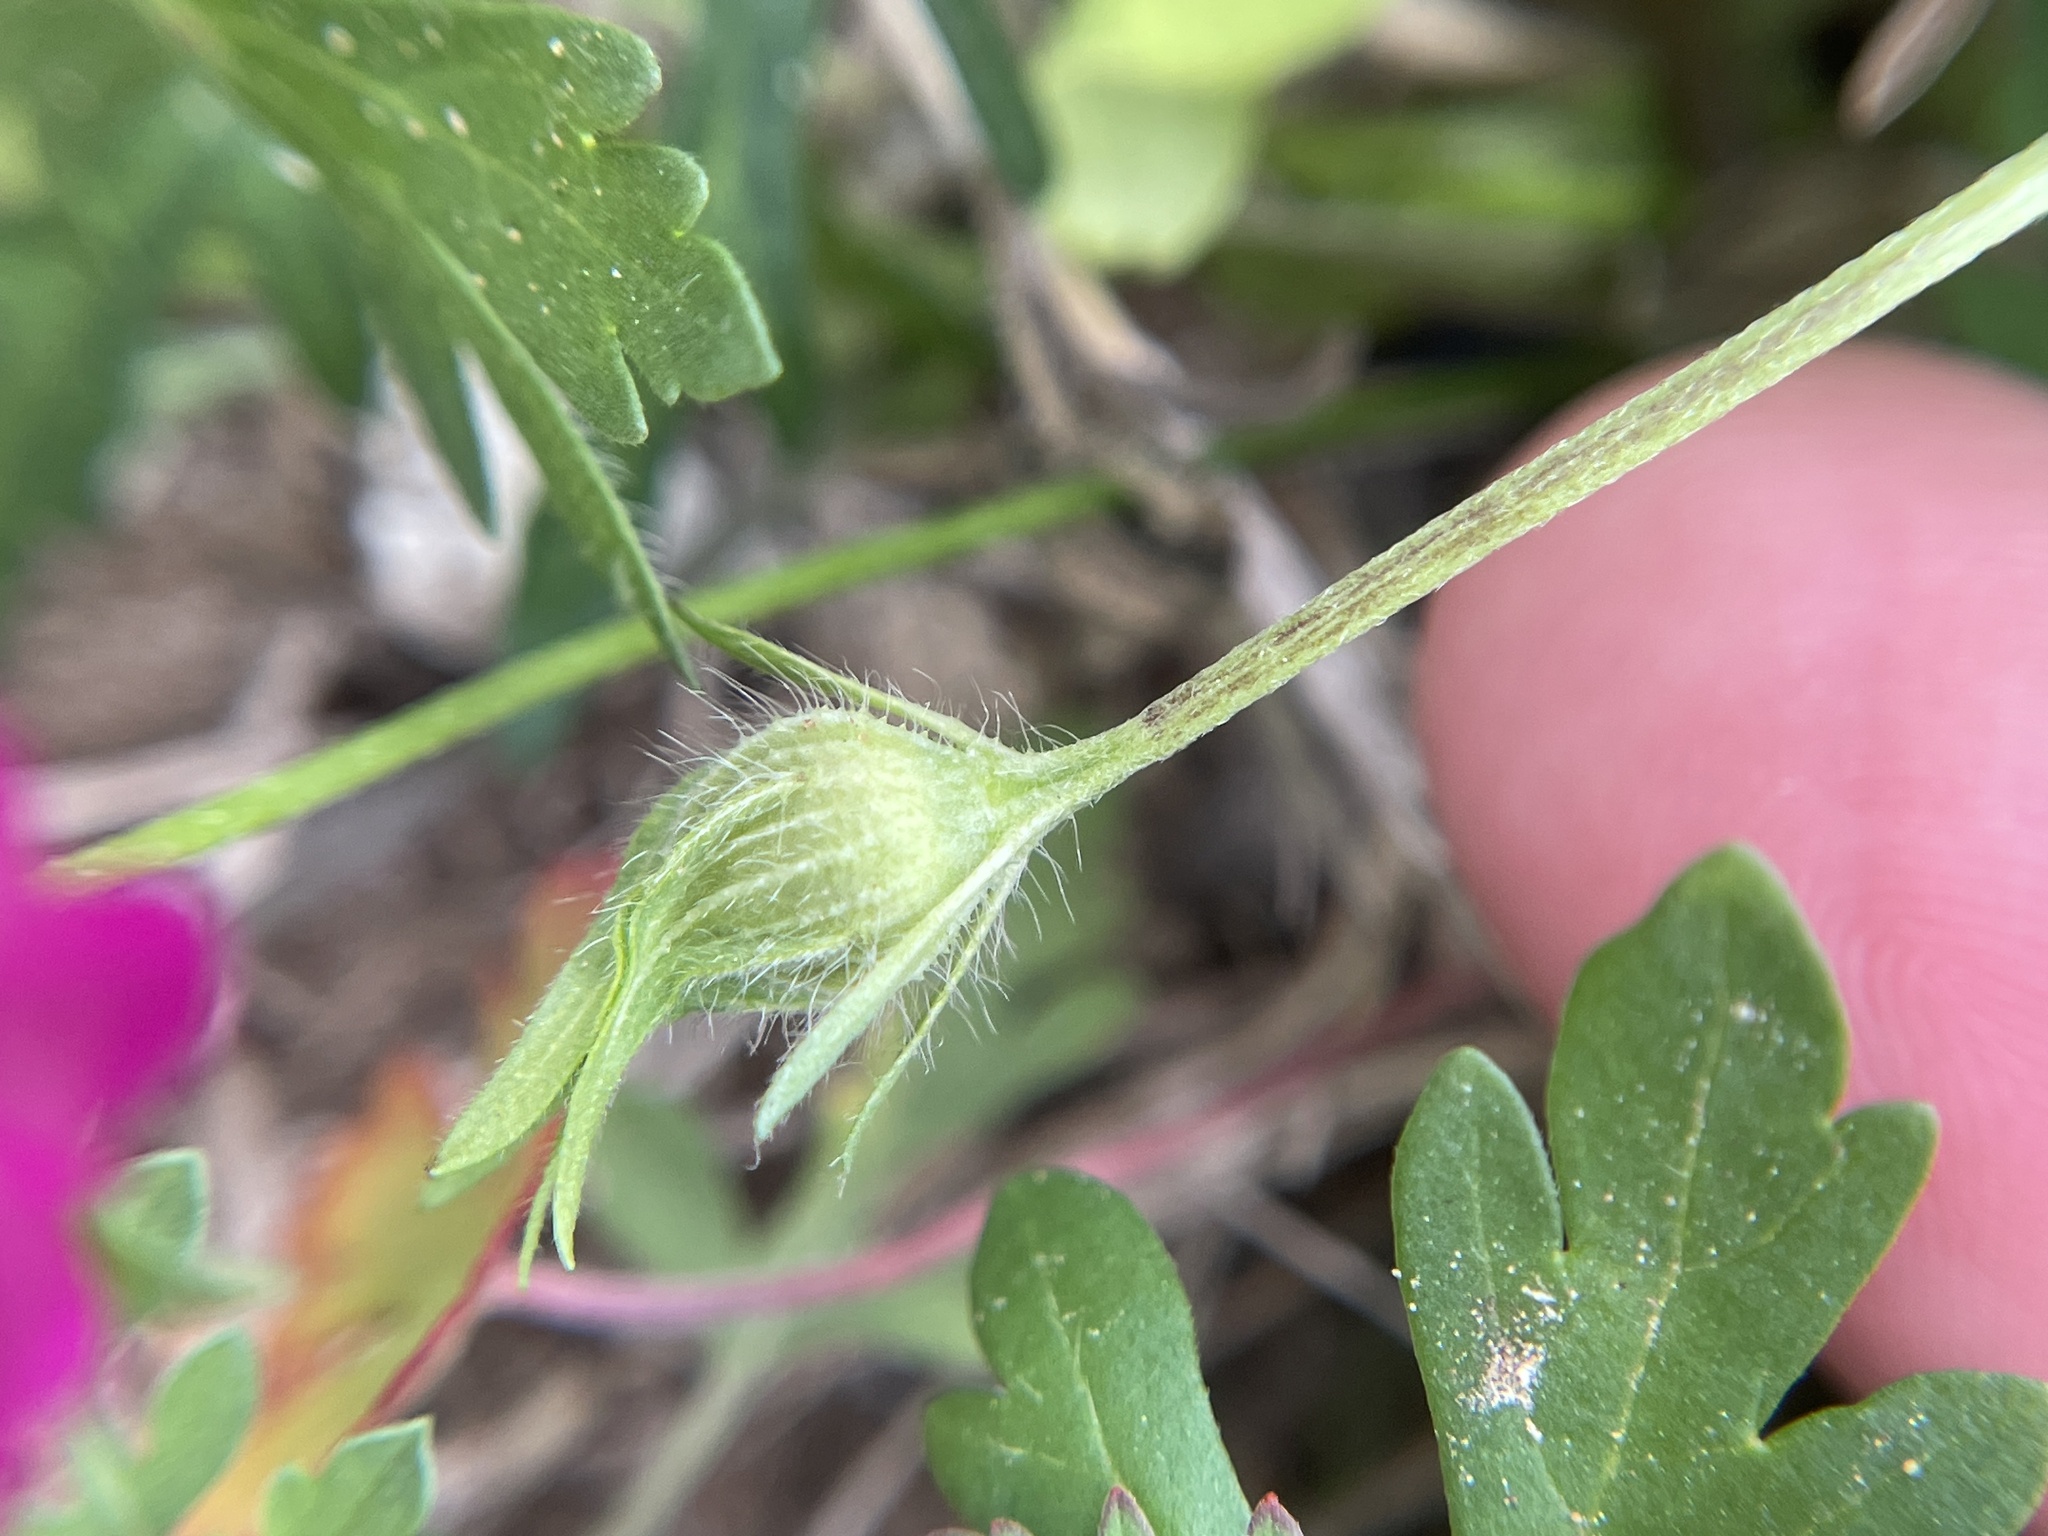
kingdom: Plantae
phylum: Tracheophyta
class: Magnoliopsida
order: Malvales
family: Malvaceae
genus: Callirhoe
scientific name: Callirhoe involucrata
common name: Purple poppy-mallow
